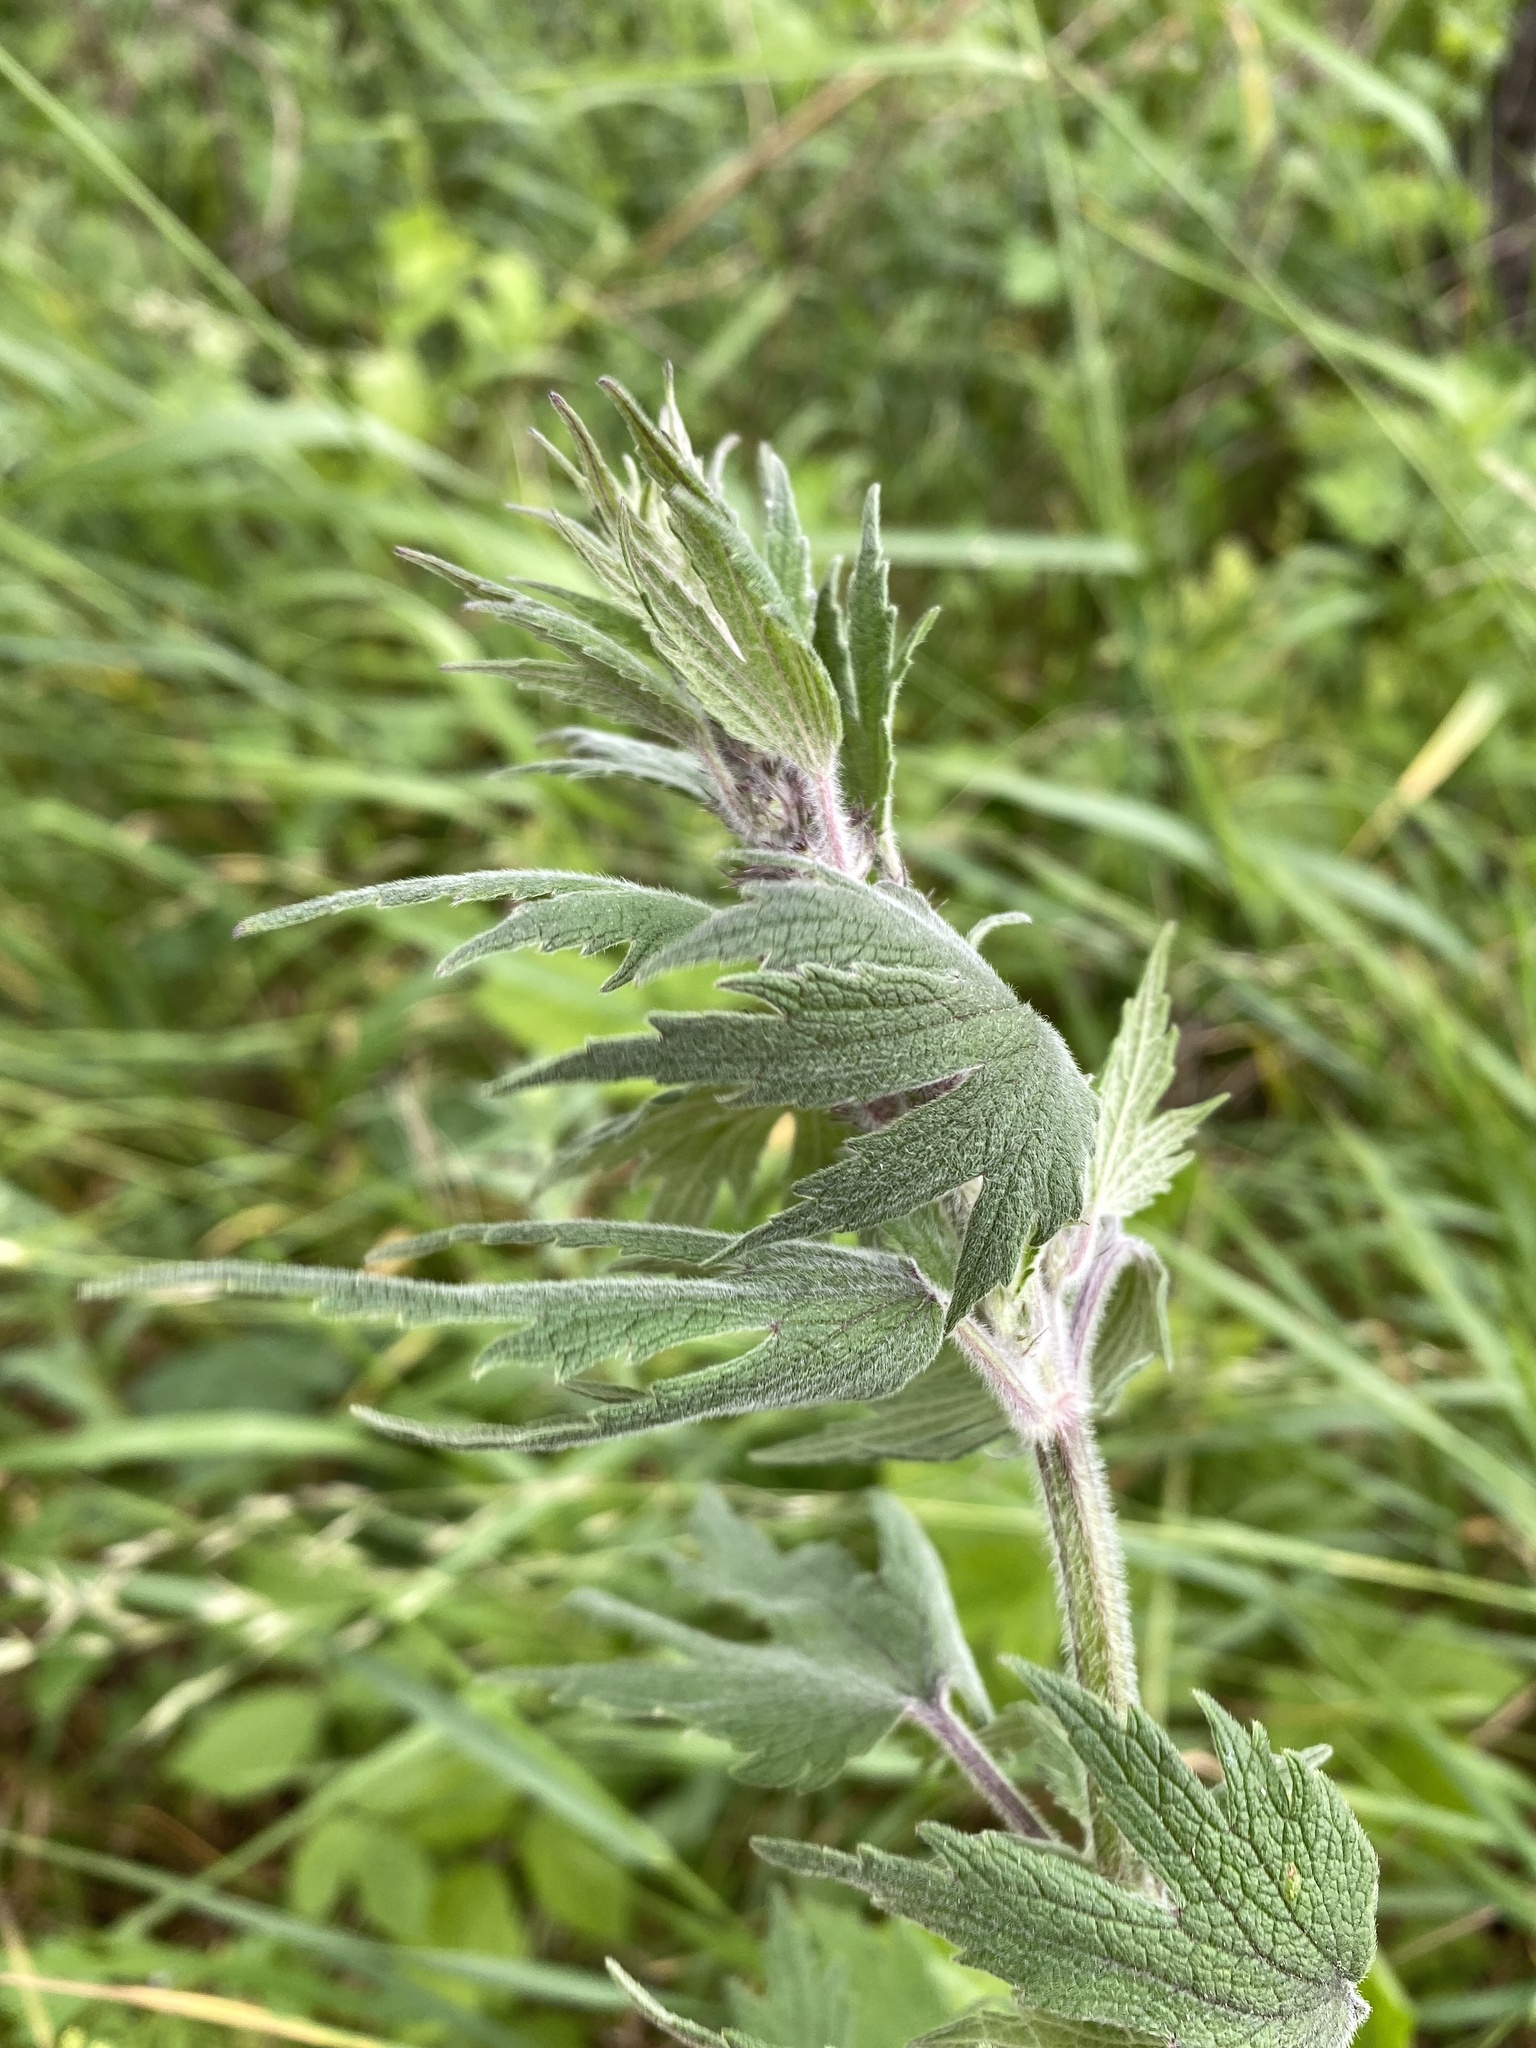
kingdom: Plantae
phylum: Tracheophyta
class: Magnoliopsida
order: Lamiales
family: Lamiaceae
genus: Leonurus
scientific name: Leonurus quinquelobatus
